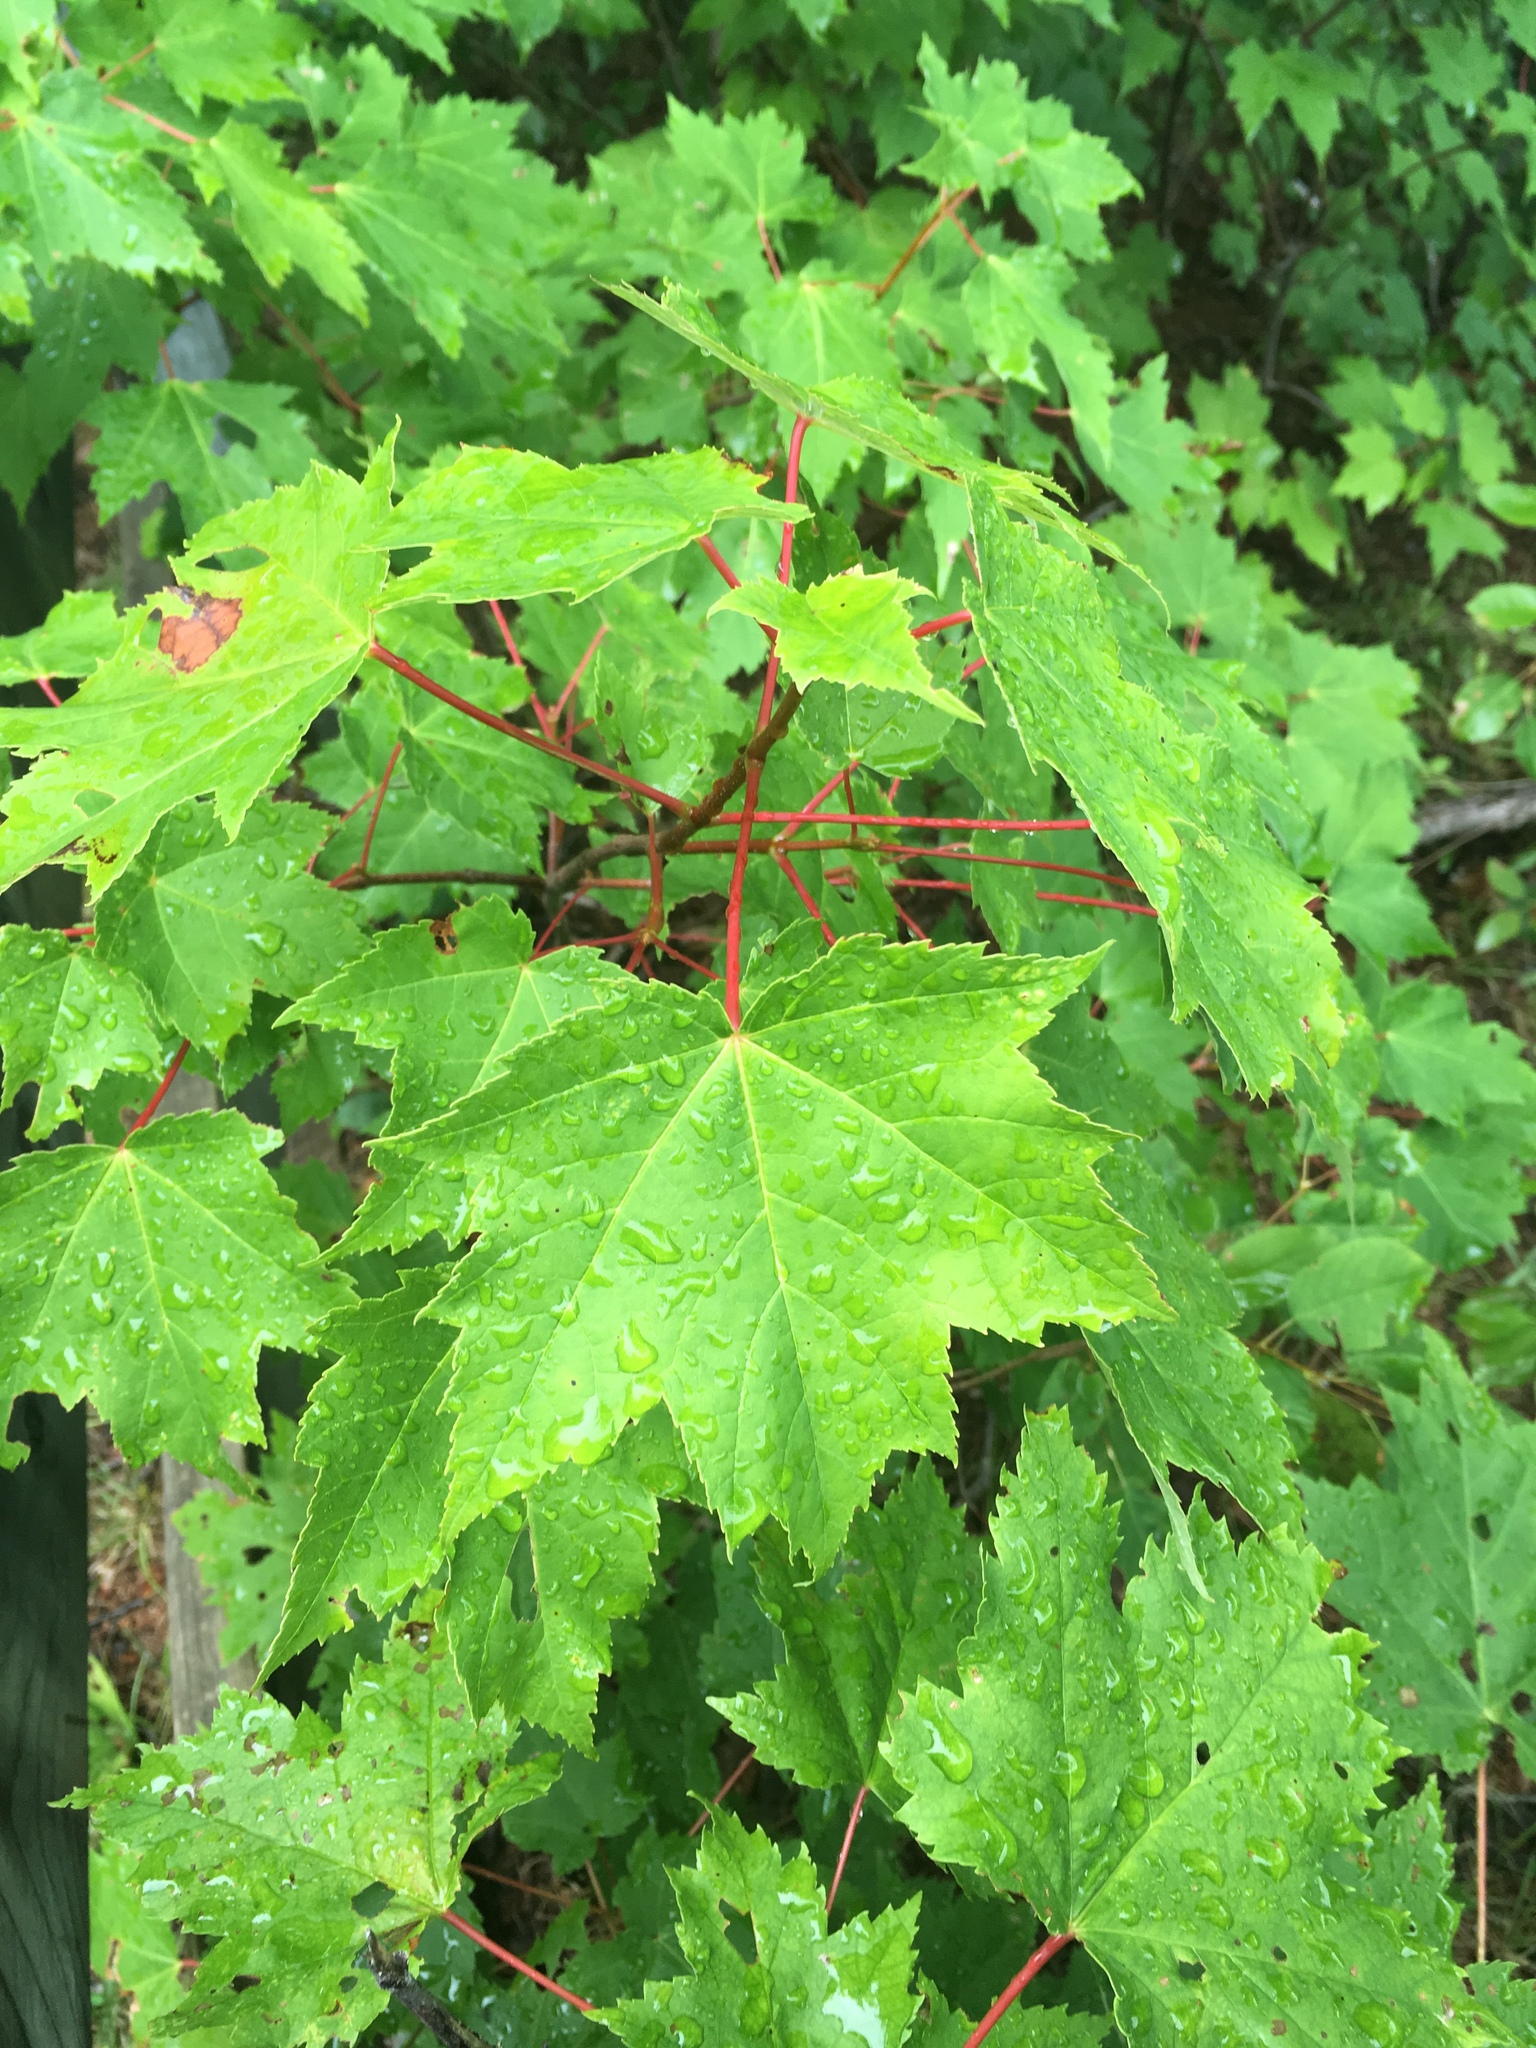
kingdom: Plantae
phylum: Tracheophyta
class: Magnoliopsida
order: Sapindales
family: Sapindaceae
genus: Acer
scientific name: Acer rubrum
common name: Red maple
